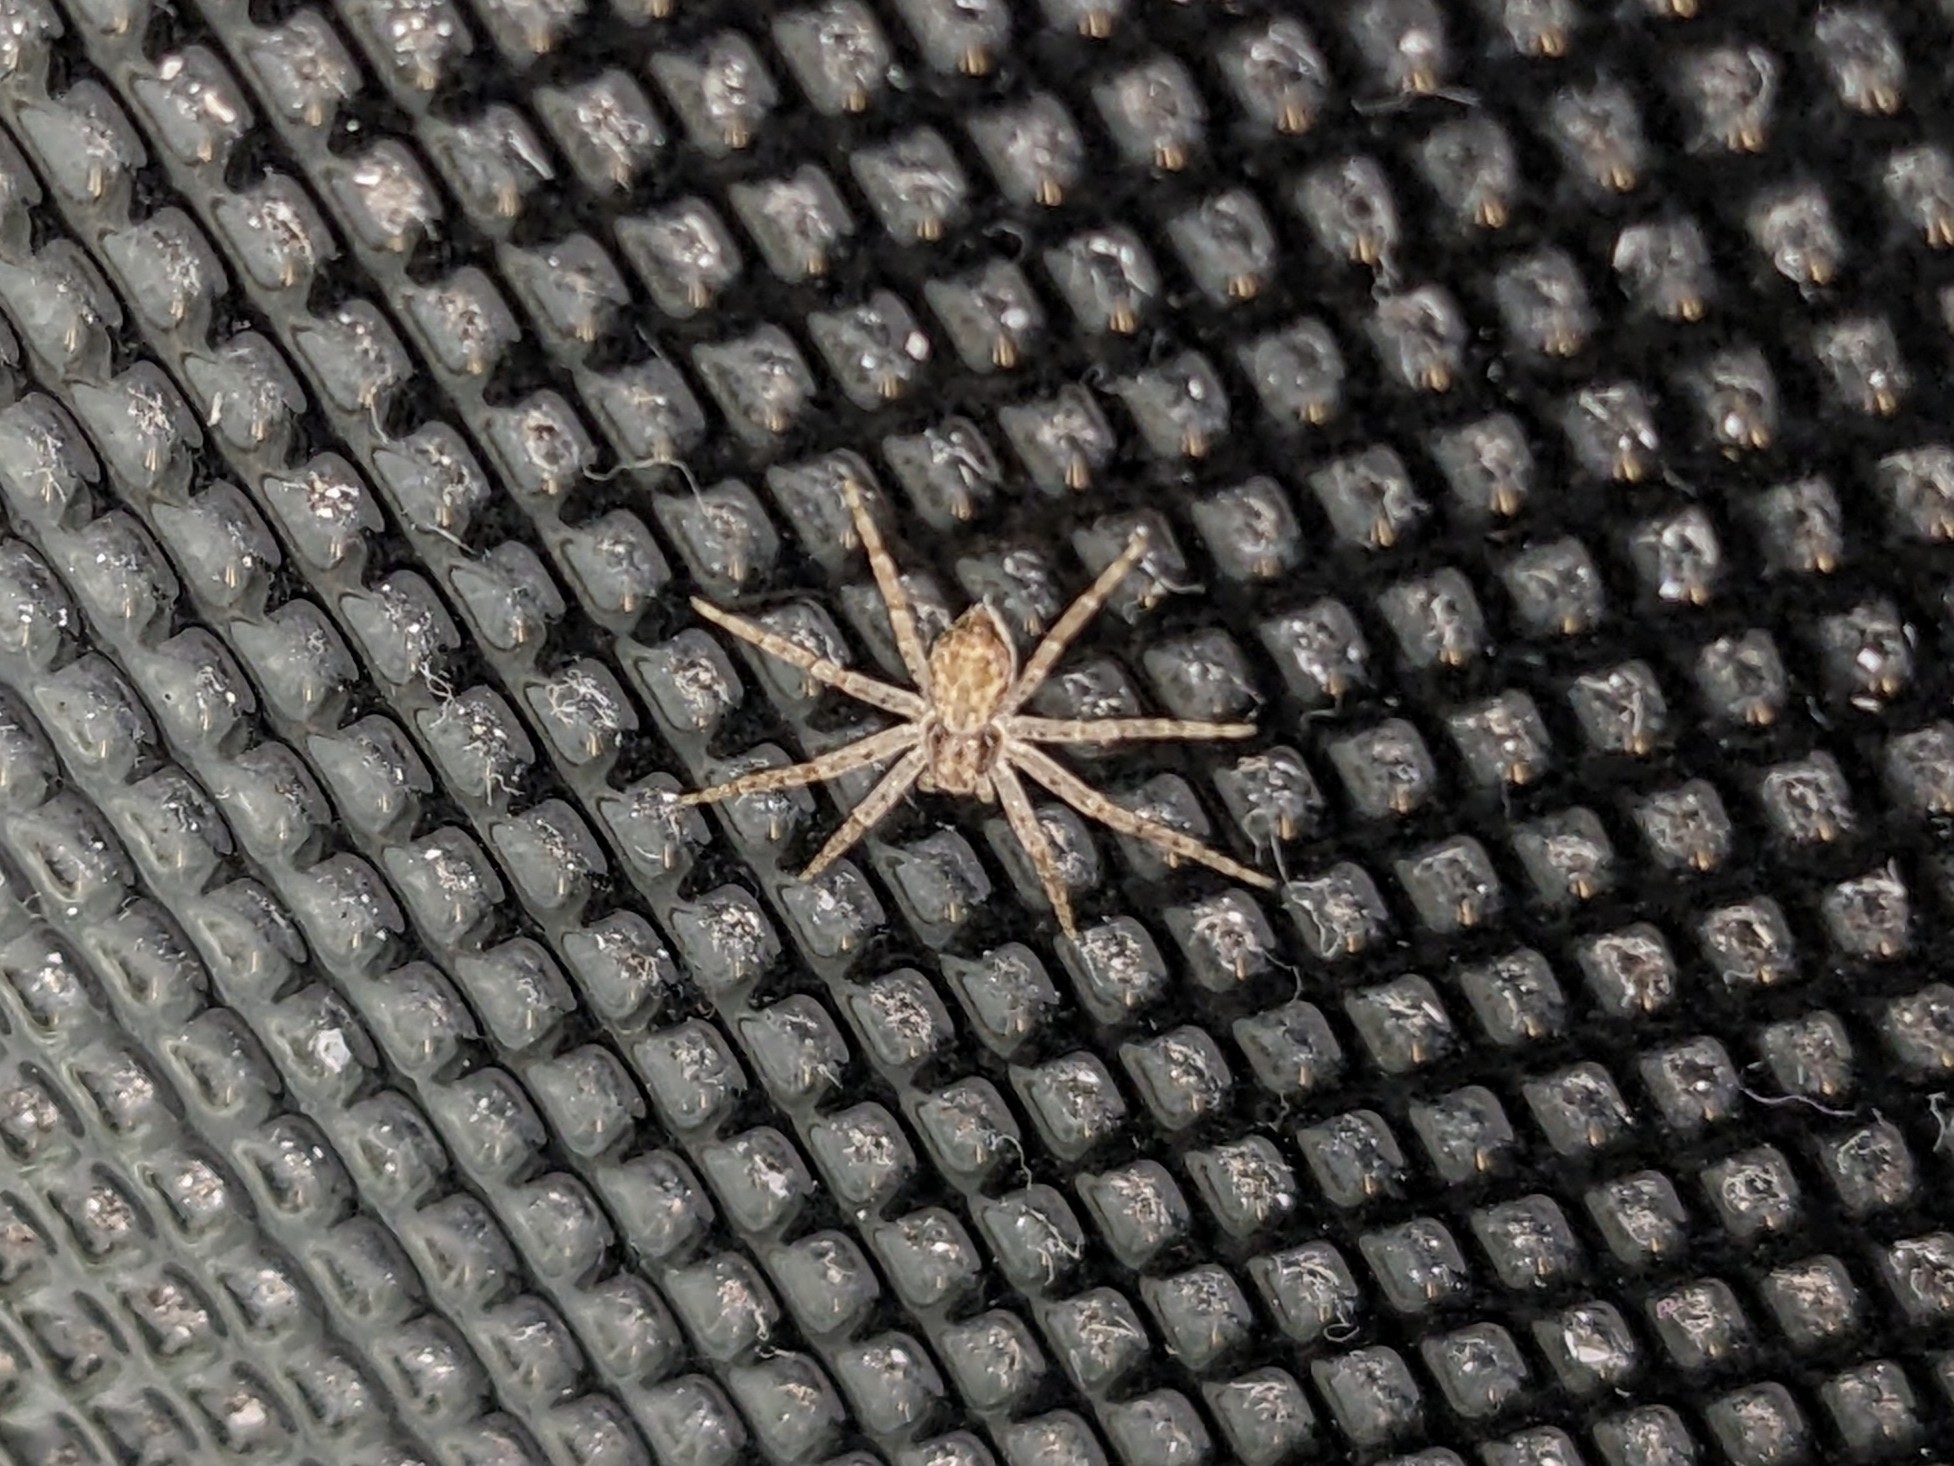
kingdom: Animalia
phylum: Arthropoda
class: Arachnida
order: Araneae
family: Philodromidae
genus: Philodromus
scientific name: Philodromus dispar
